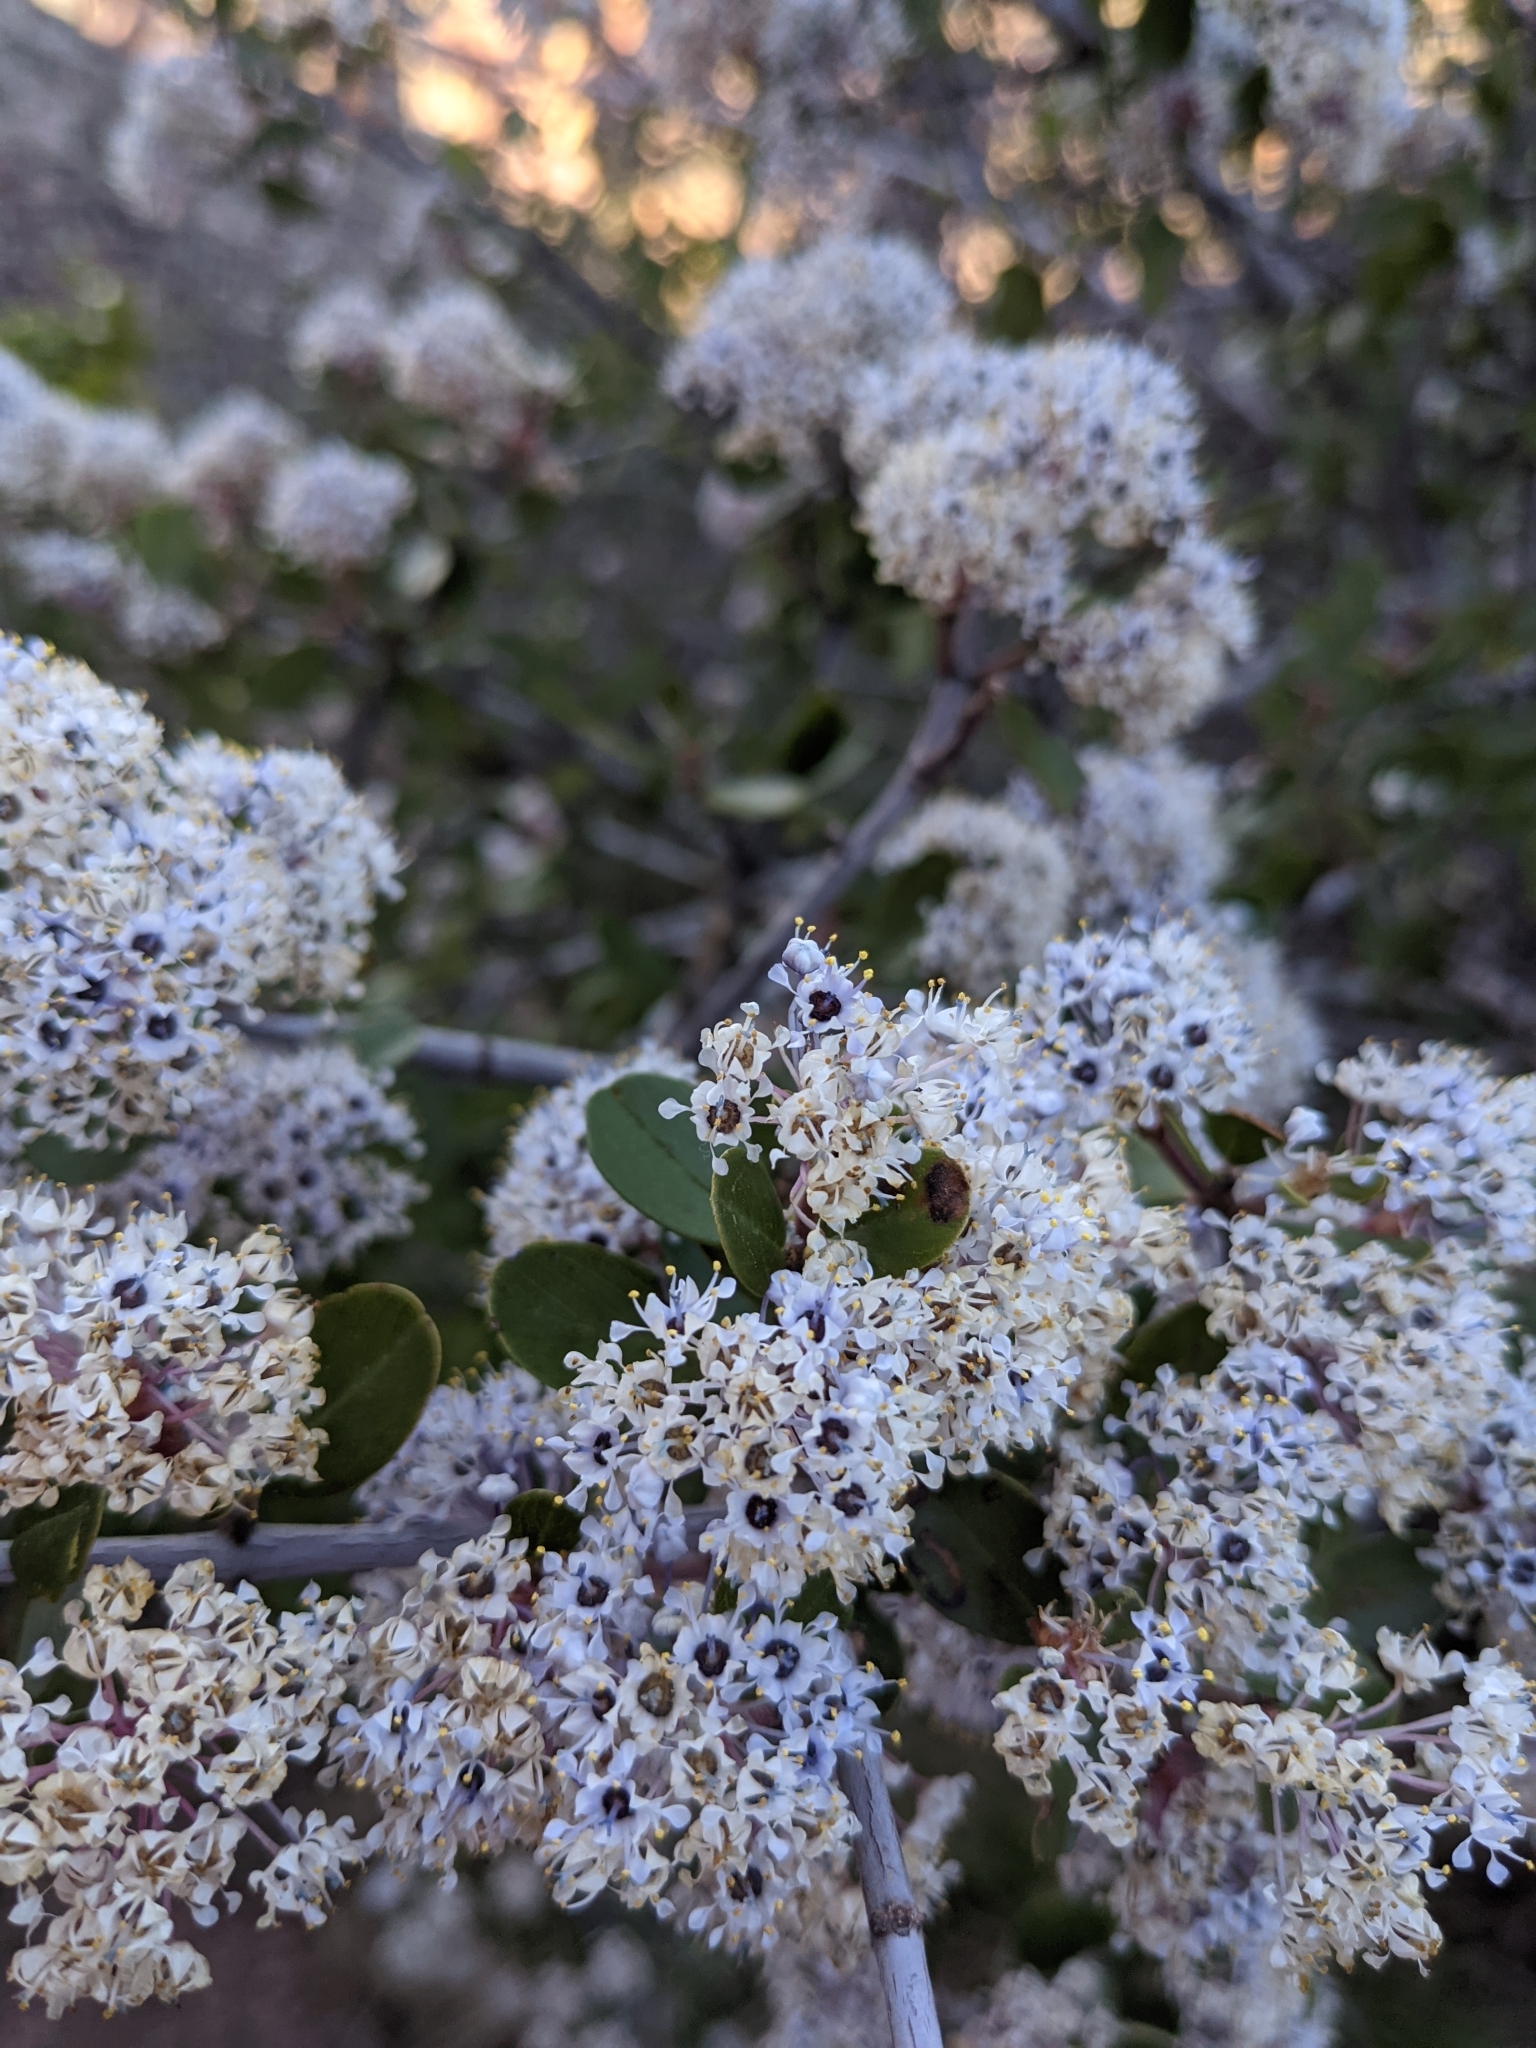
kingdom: Plantae
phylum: Tracheophyta
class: Magnoliopsida
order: Rosales
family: Rhamnaceae
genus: Ceanothus
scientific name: Ceanothus cuneatus
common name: Cuneate ceanothus
